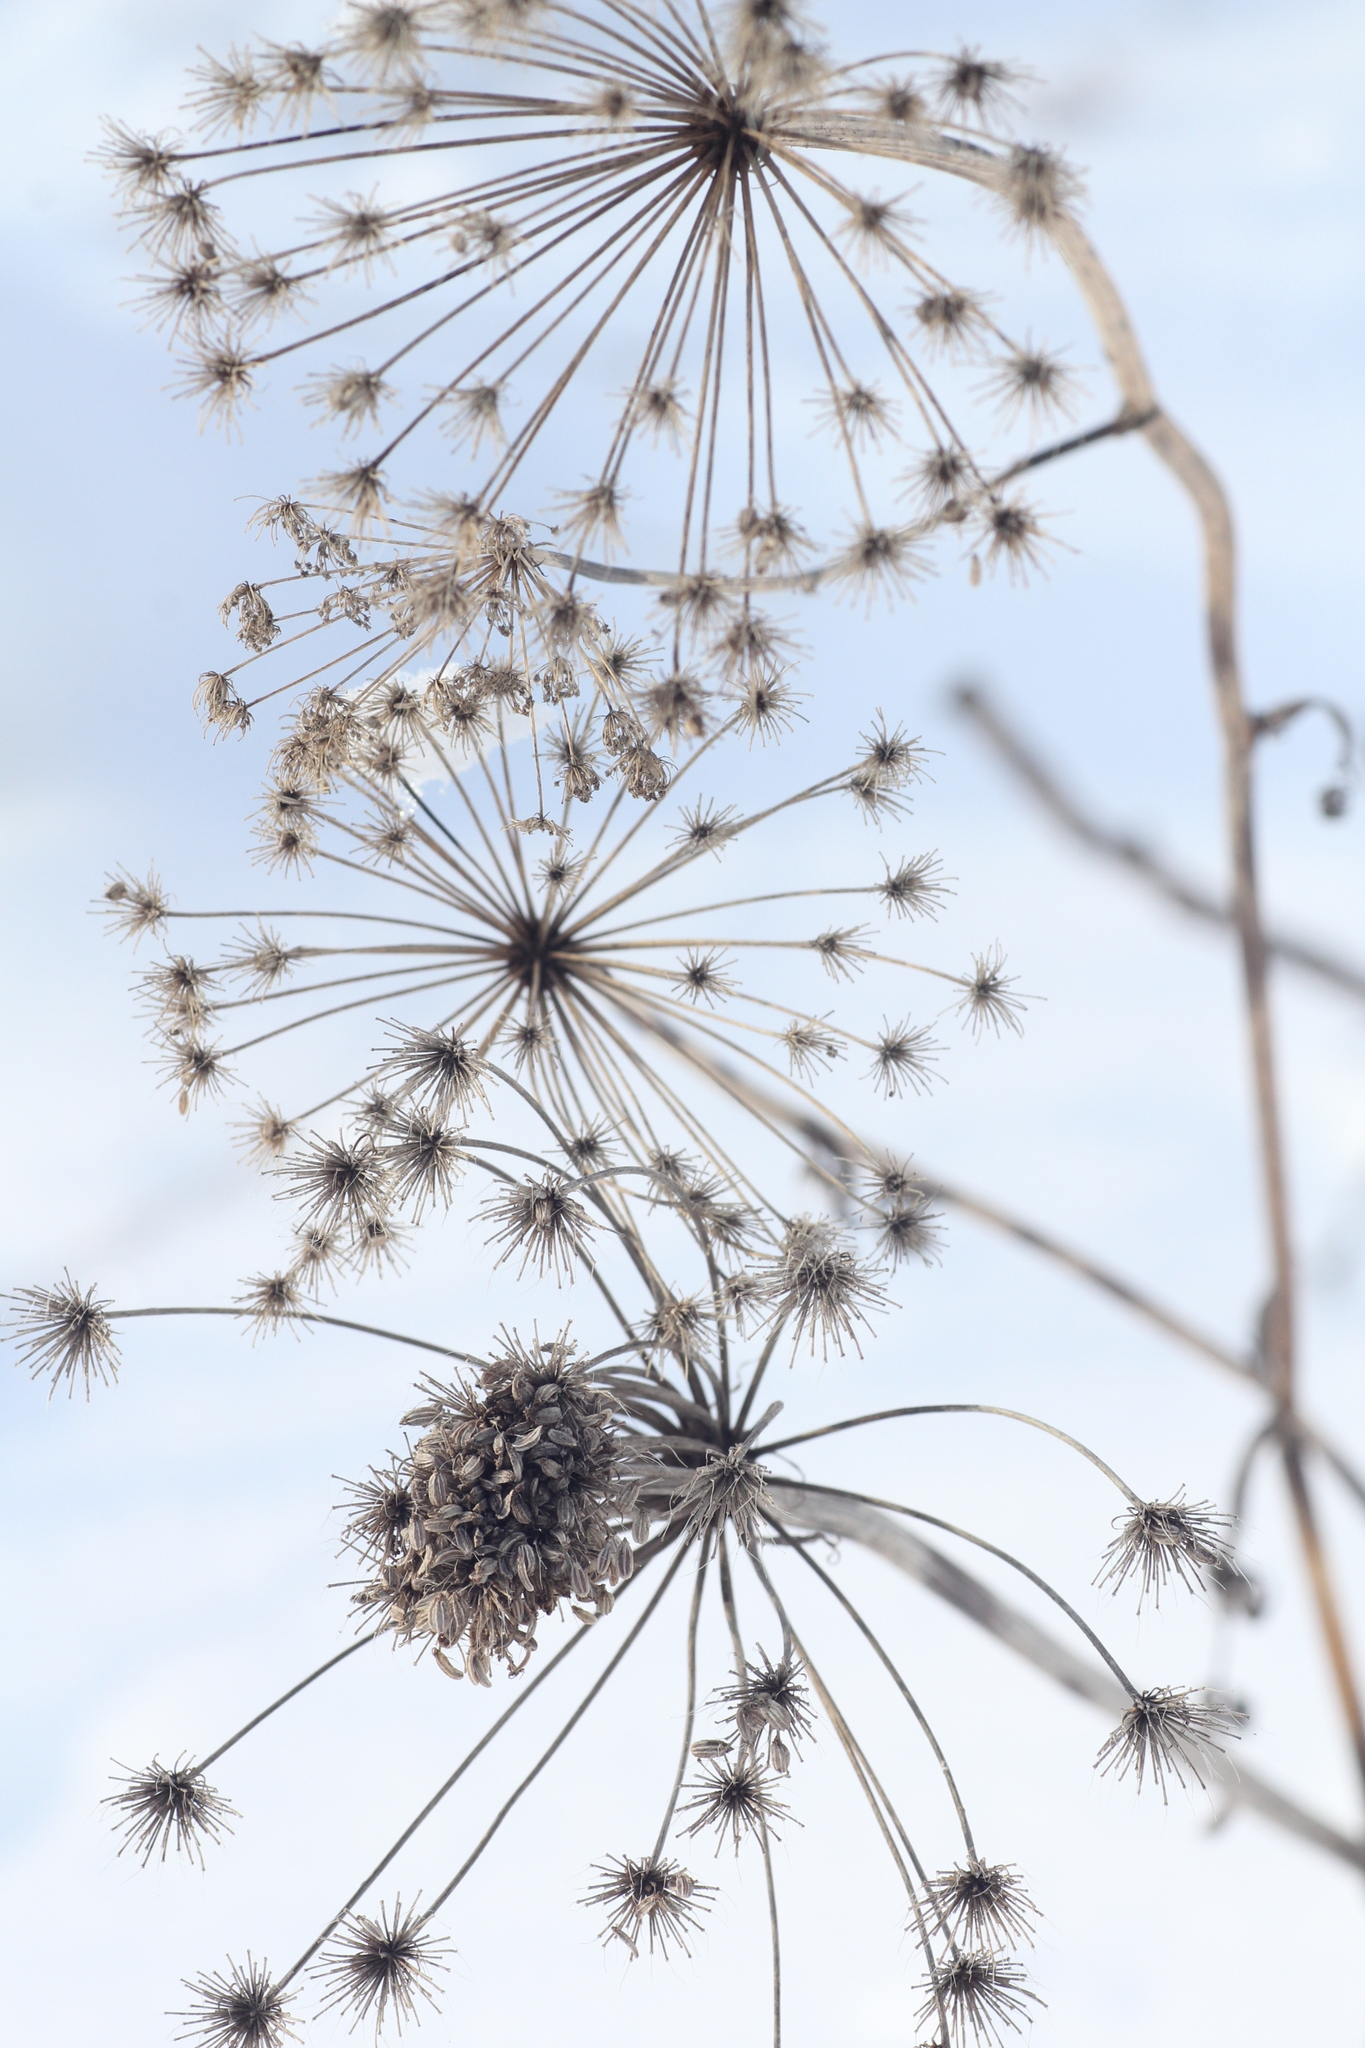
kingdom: Plantae
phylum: Tracheophyta
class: Magnoliopsida
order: Apiales
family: Apiaceae
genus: Pleurospermum
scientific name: Pleurospermum uralense
